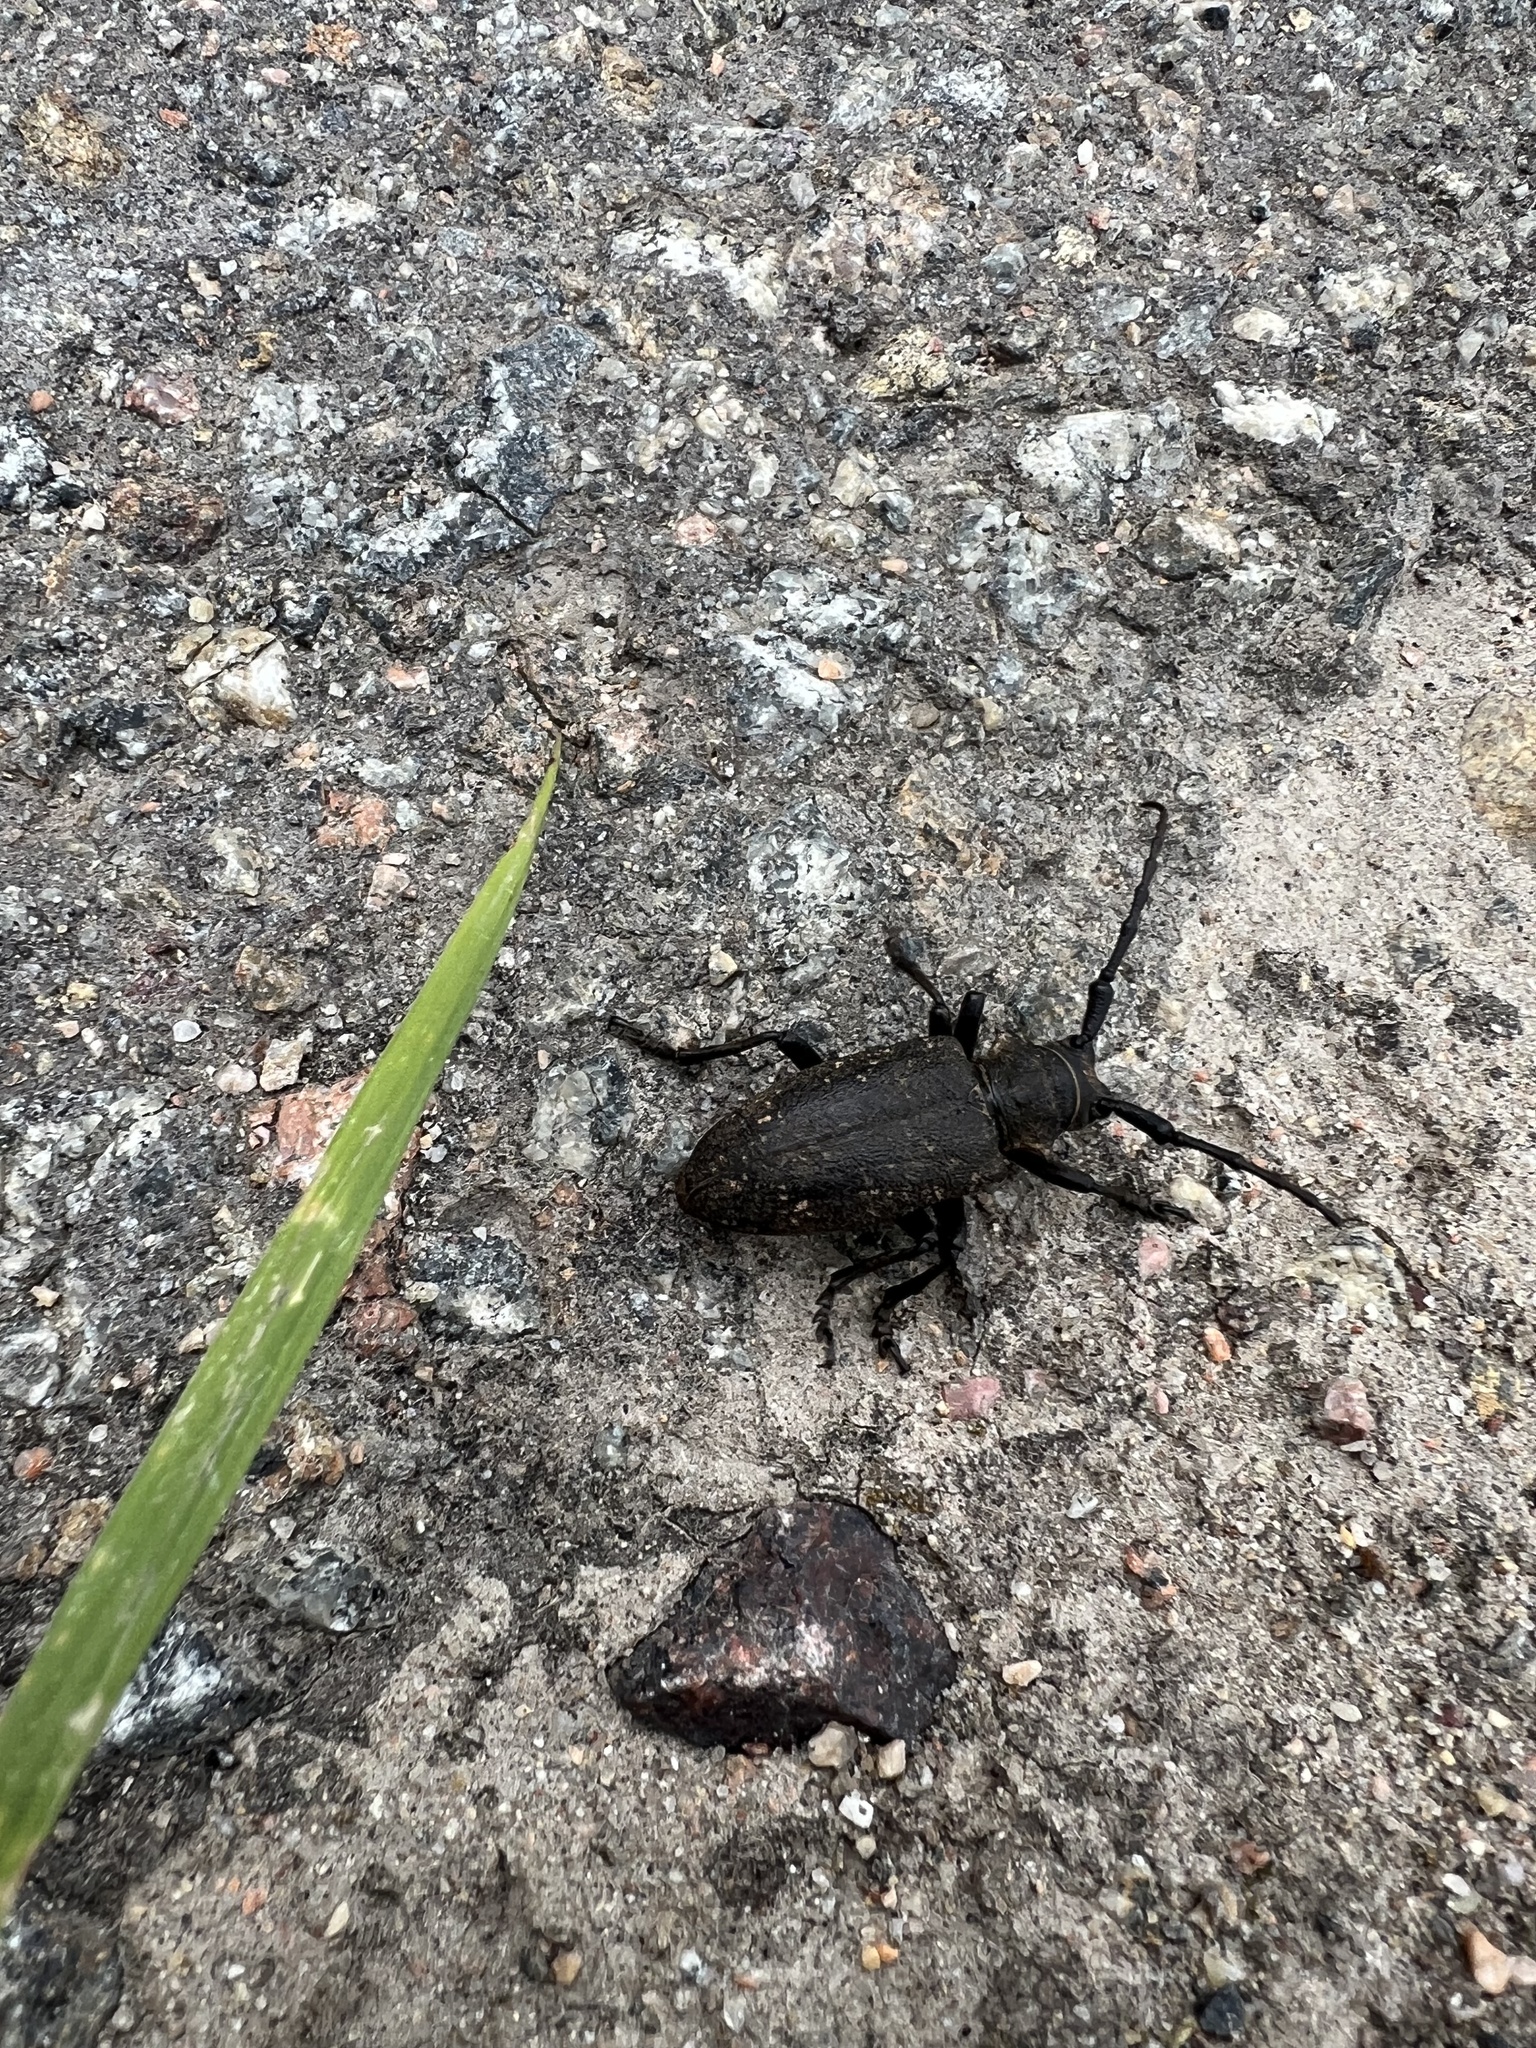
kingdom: Animalia
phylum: Arthropoda
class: Insecta
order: Coleoptera
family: Cerambycidae
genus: Lamia
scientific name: Lamia textor
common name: Weaver beetle
